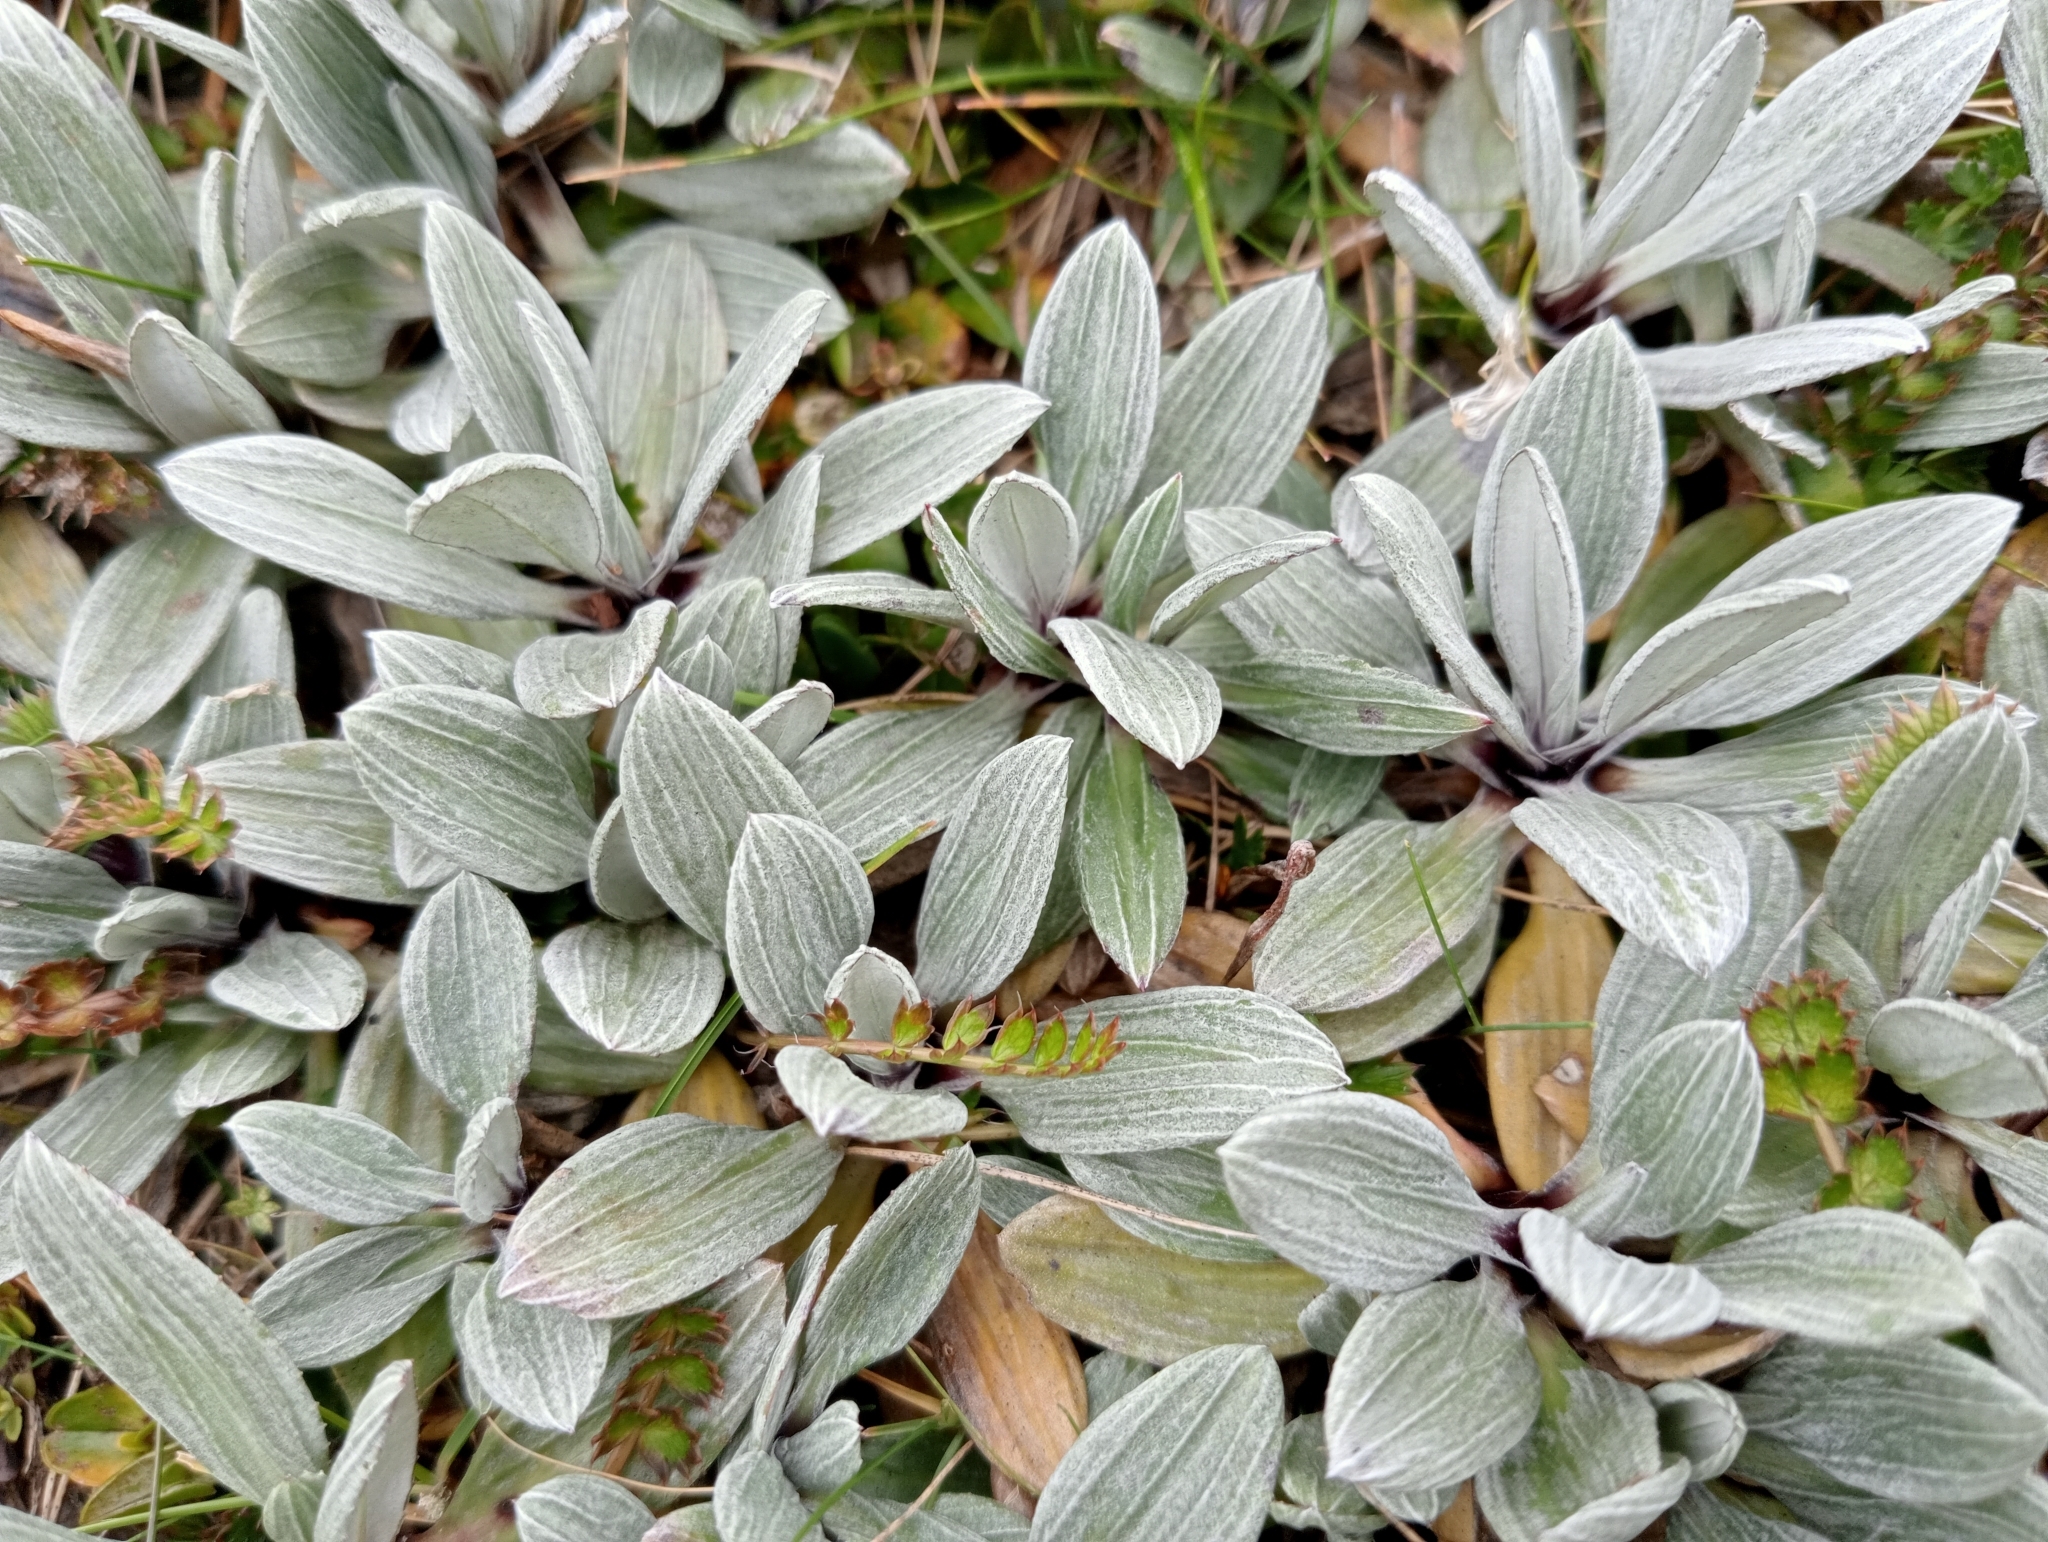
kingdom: Plantae
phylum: Tracheophyta
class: Magnoliopsida
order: Asterales
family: Asteraceae
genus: Celmisia
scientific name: Celmisia haastii
